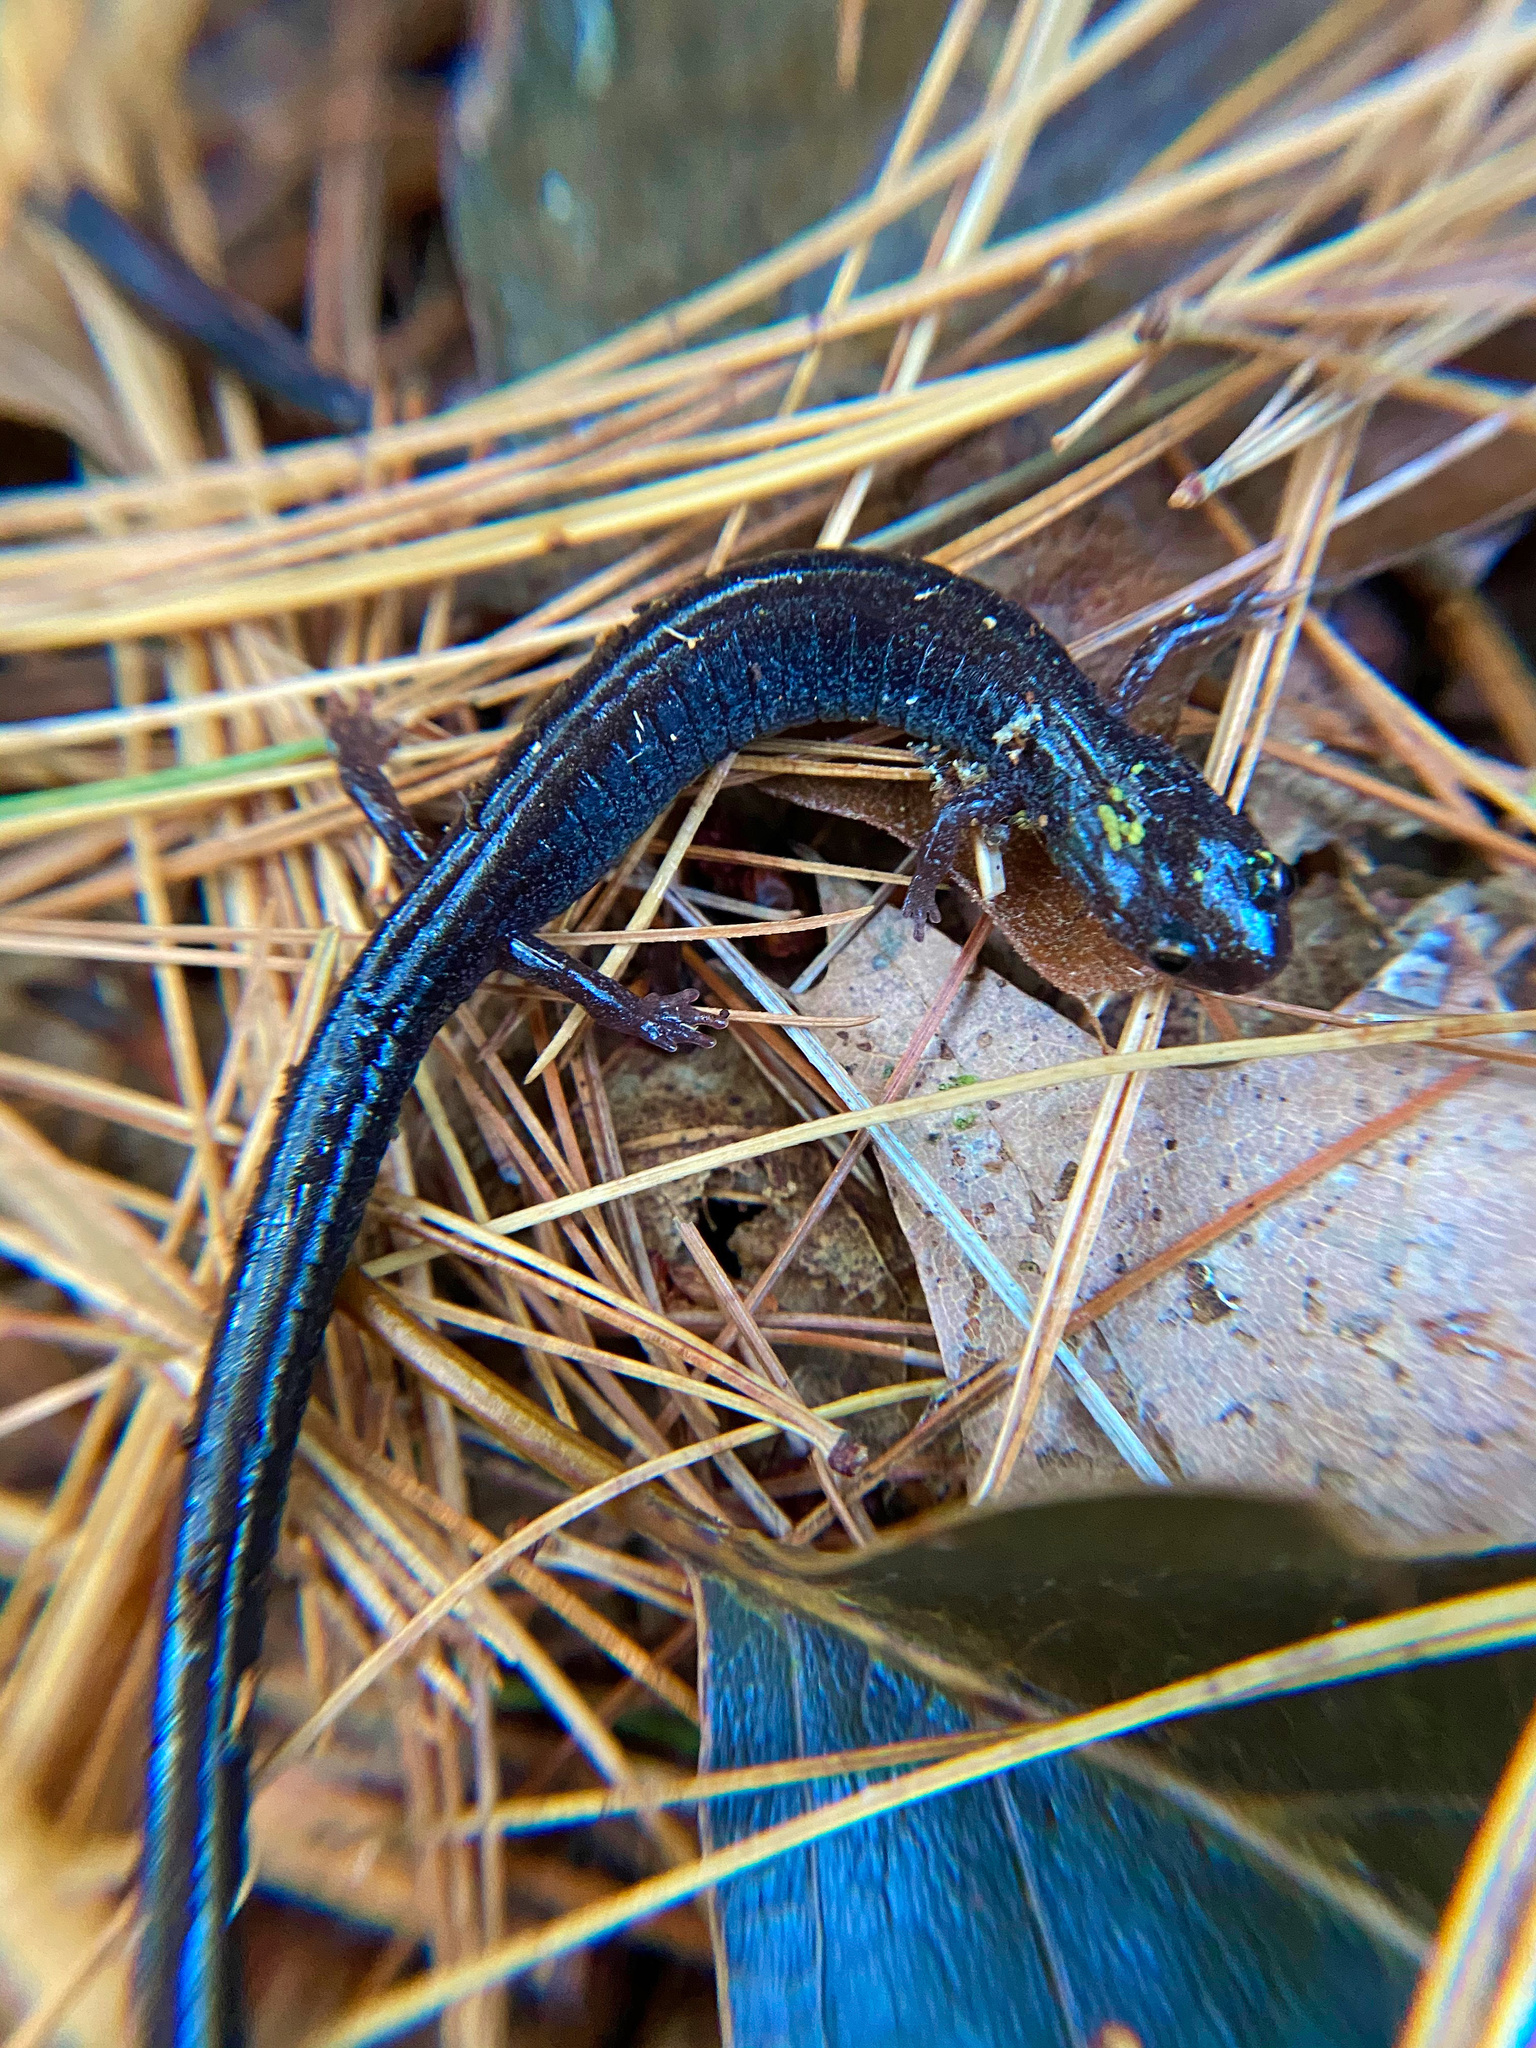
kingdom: Animalia
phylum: Chordata
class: Amphibia
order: Caudata
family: Plethodontidae
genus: Plethodon
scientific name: Plethodon cinereus
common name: Redback salamander
